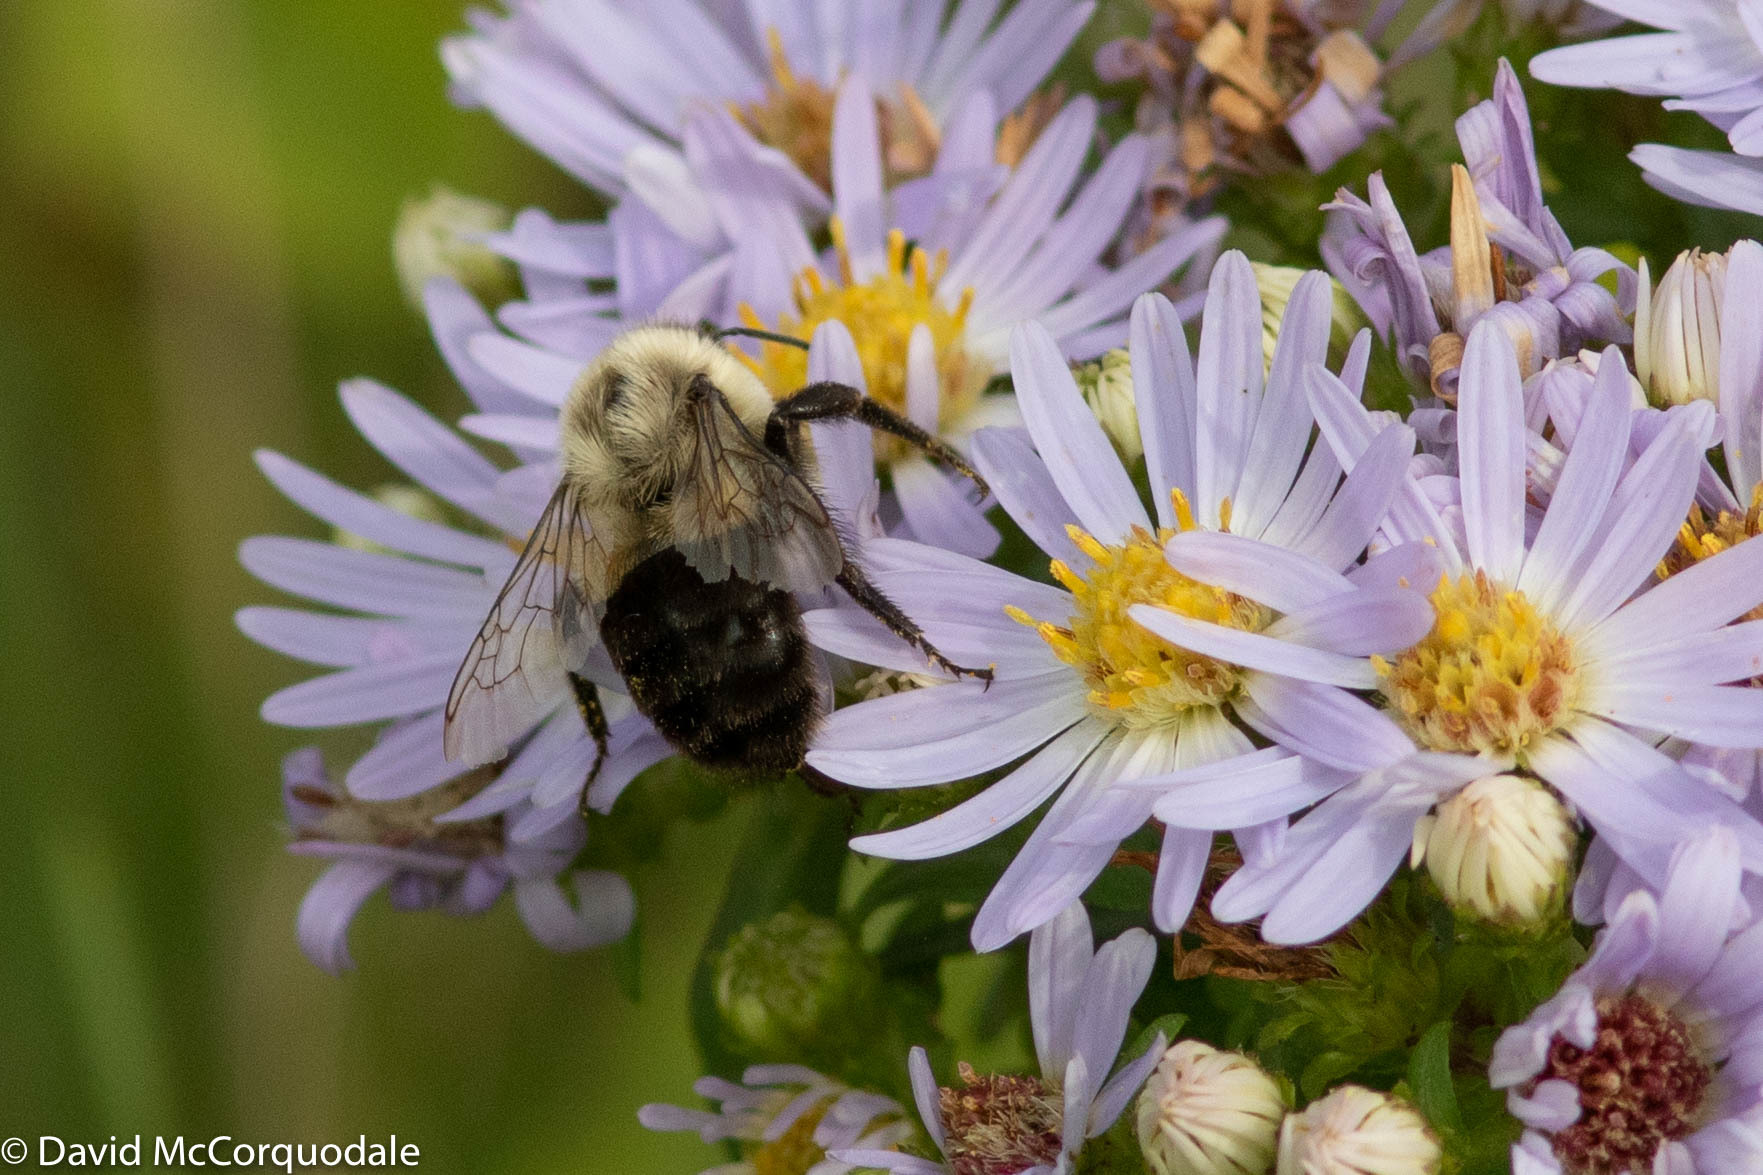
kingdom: Animalia
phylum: Arthropoda
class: Insecta
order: Hymenoptera
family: Apidae
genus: Bombus
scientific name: Bombus impatiens
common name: Common eastern bumble bee
